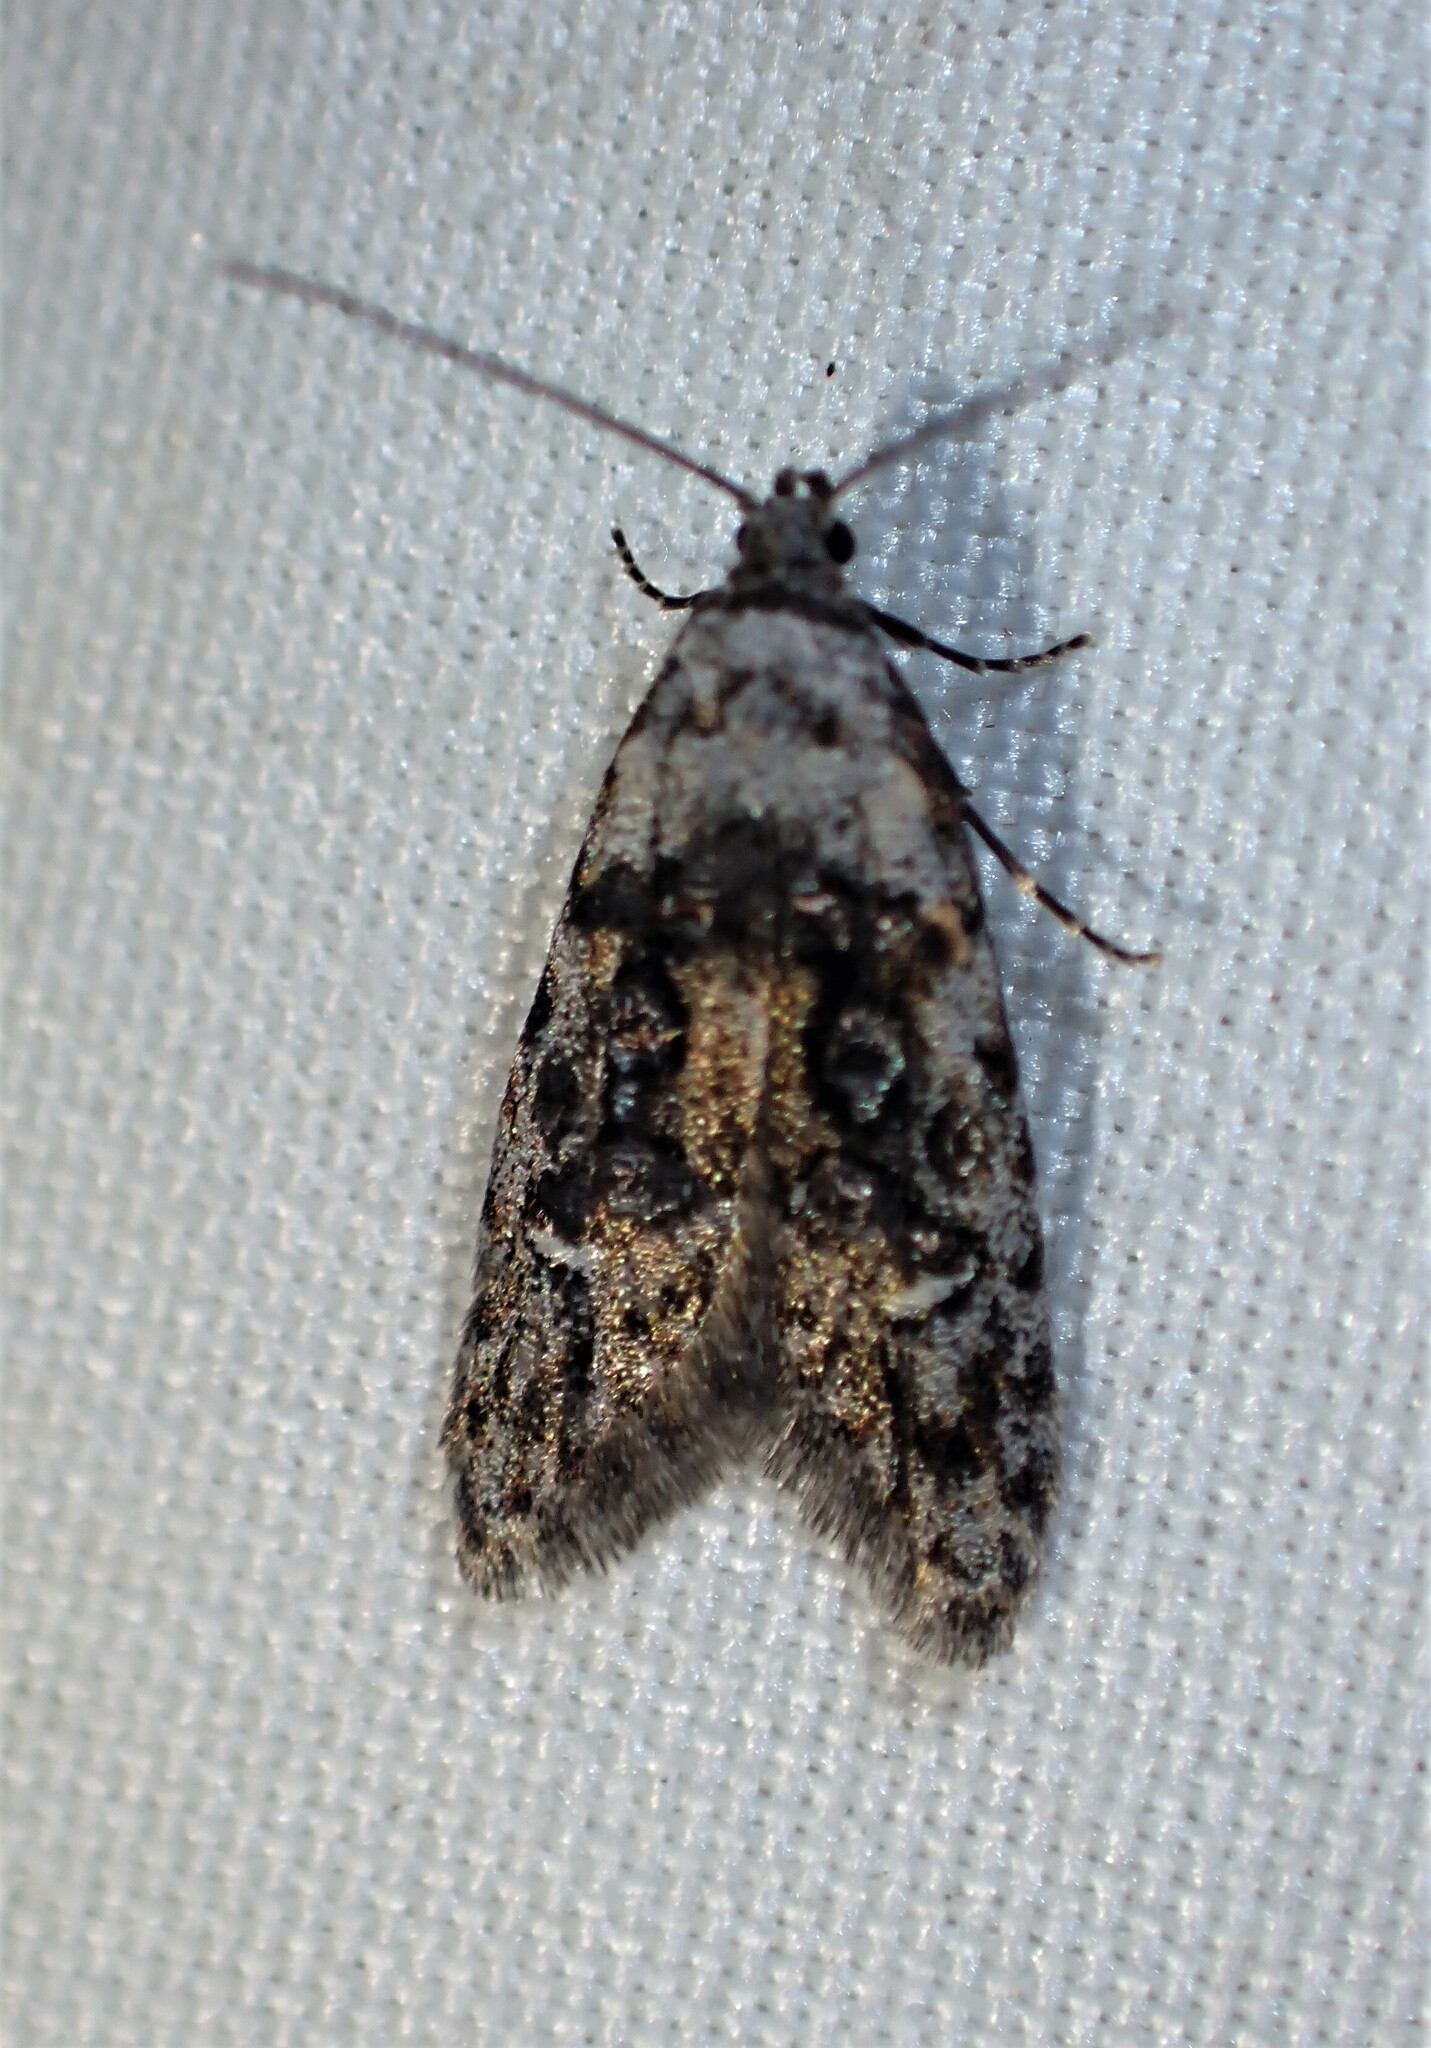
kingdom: Animalia
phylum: Arthropoda
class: Insecta
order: Lepidoptera
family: Carposinidae
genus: Bondia
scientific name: Bondia crescentella
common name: Crescent-marked bondia
